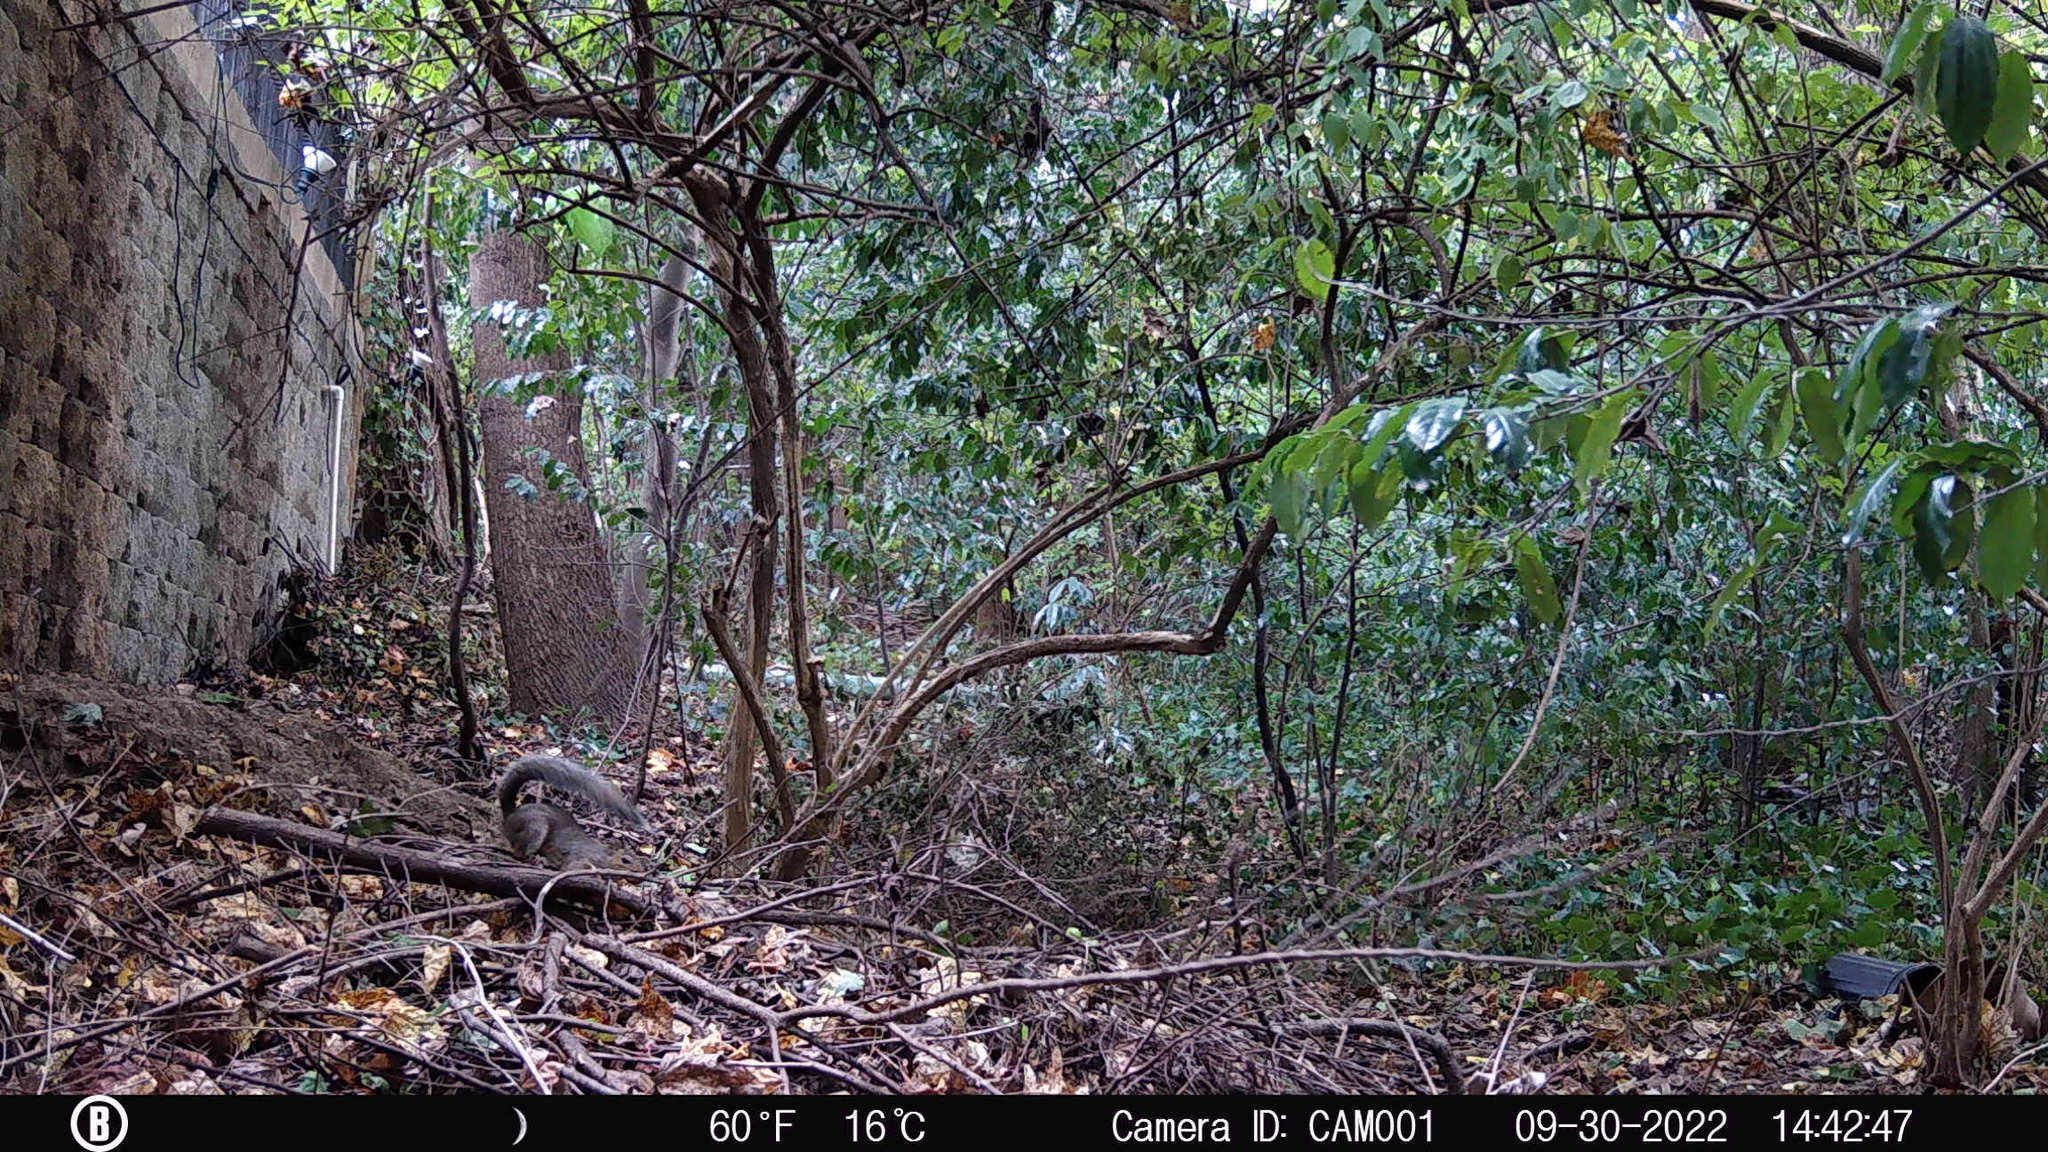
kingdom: Animalia
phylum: Chordata
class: Mammalia
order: Rodentia
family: Sciuridae
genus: Sciurus
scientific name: Sciurus carolinensis
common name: Eastern gray squirrel
